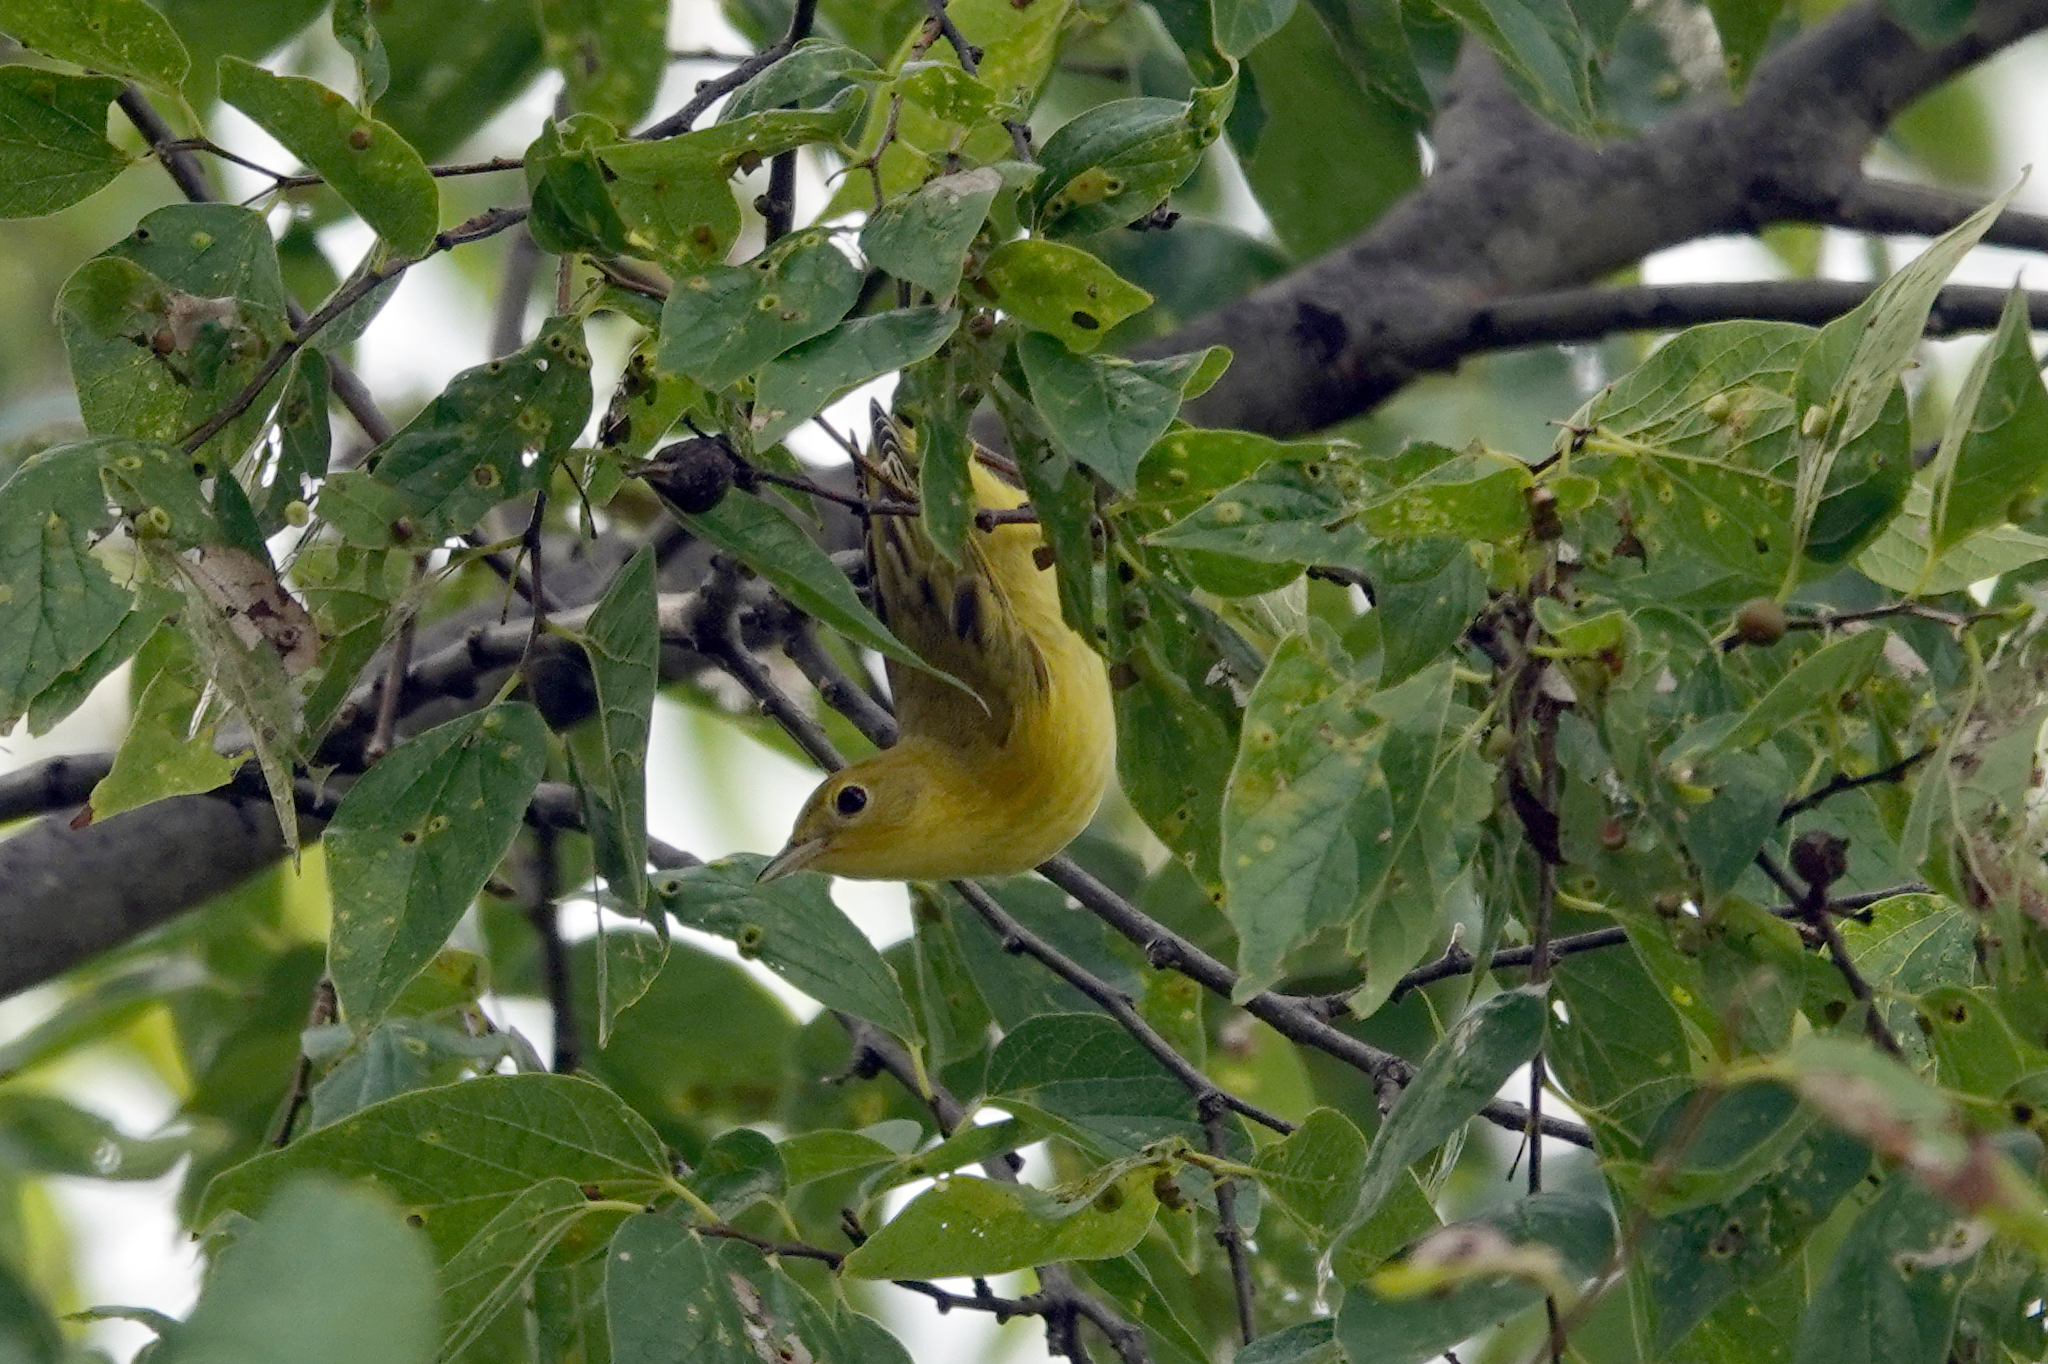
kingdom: Animalia
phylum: Chordata
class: Aves
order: Passeriformes
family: Parulidae
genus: Setophaga
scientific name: Setophaga petechia
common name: Yellow warbler
